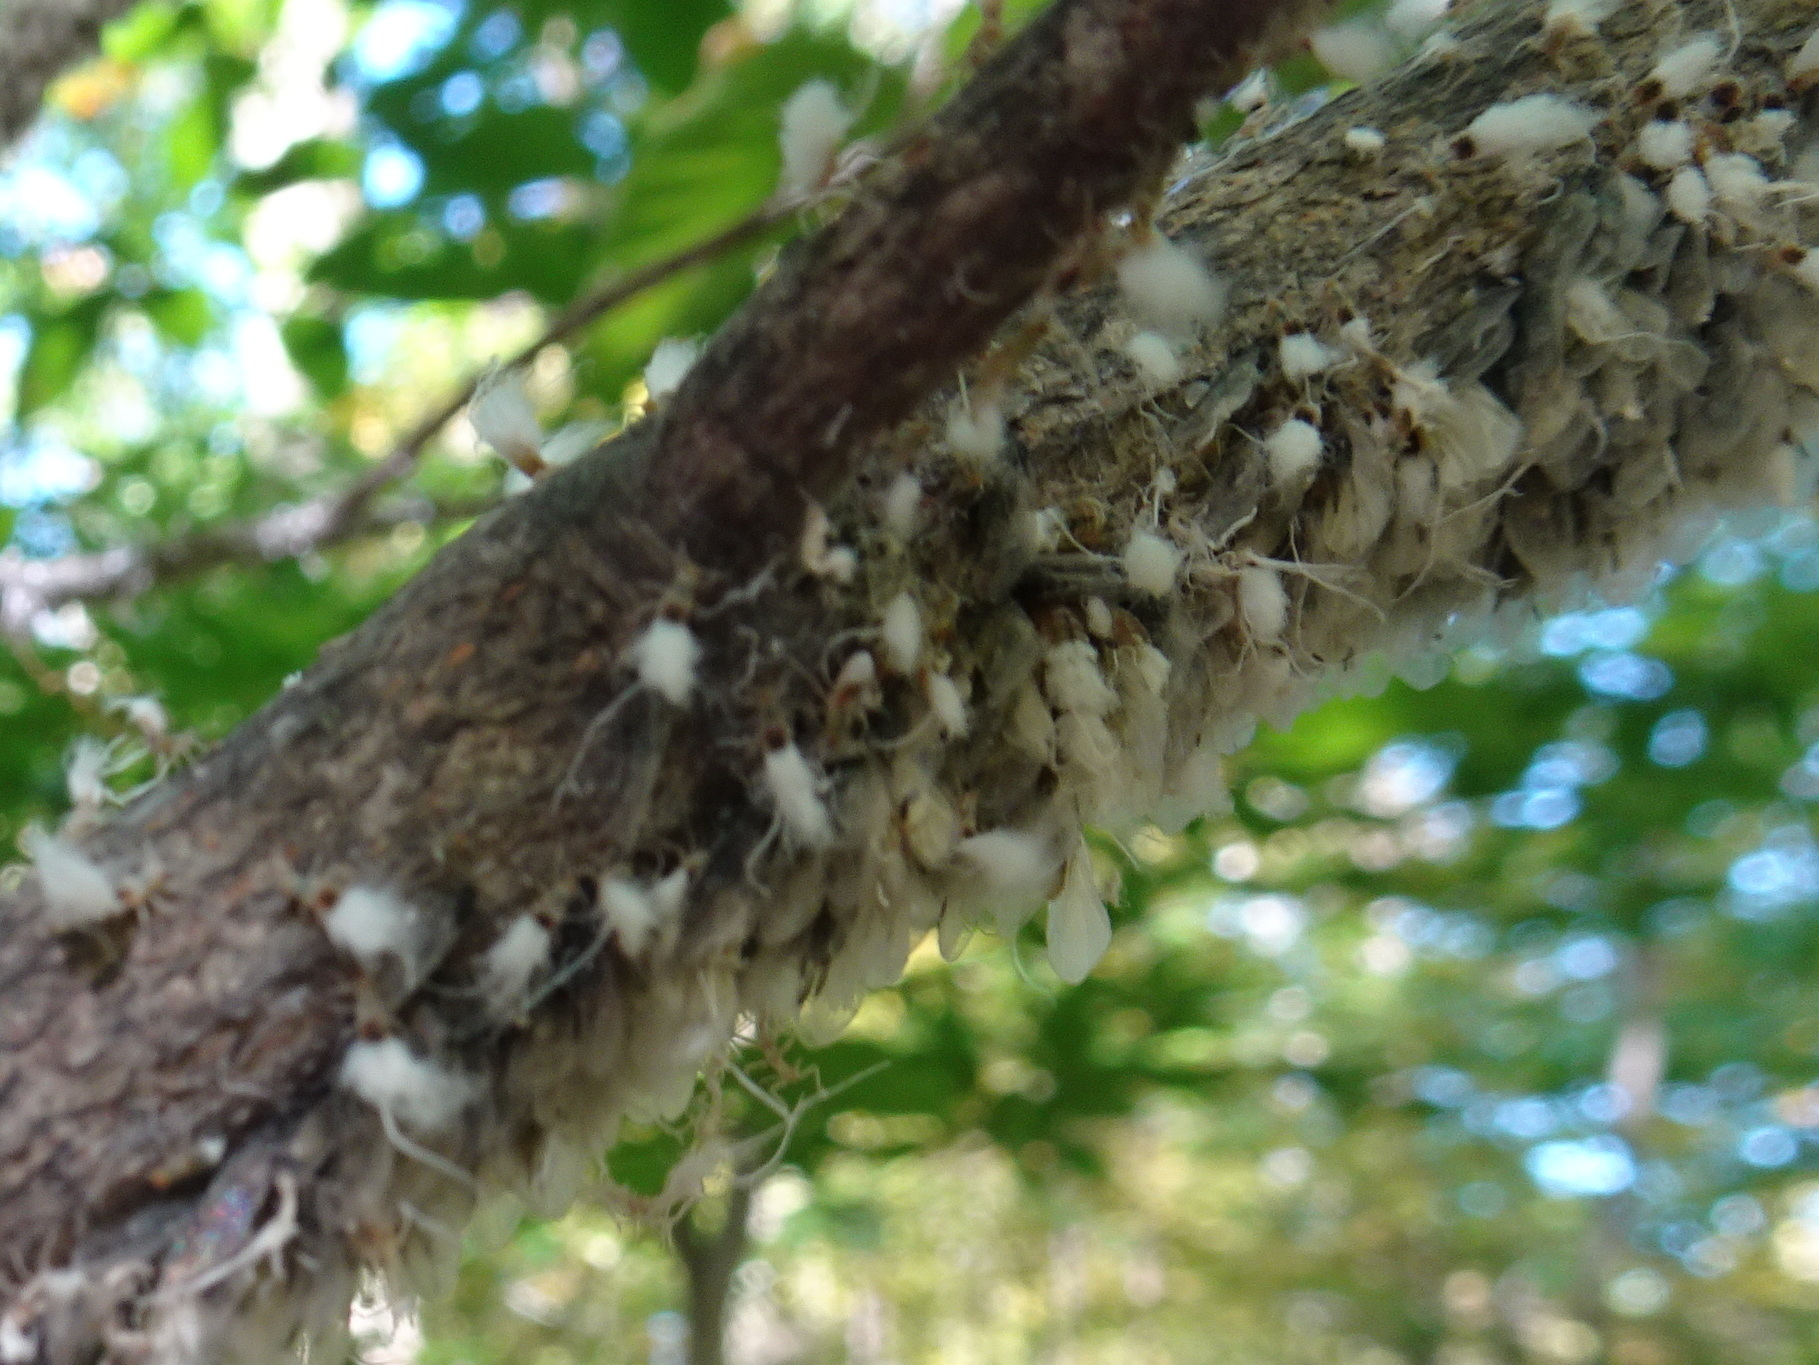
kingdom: Animalia
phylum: Arthropoda
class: Insecta
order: Hemiptera
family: Aphididae
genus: Grylloprociphilus
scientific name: Grylloprociphilus imbricator
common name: Beech blight aphid
